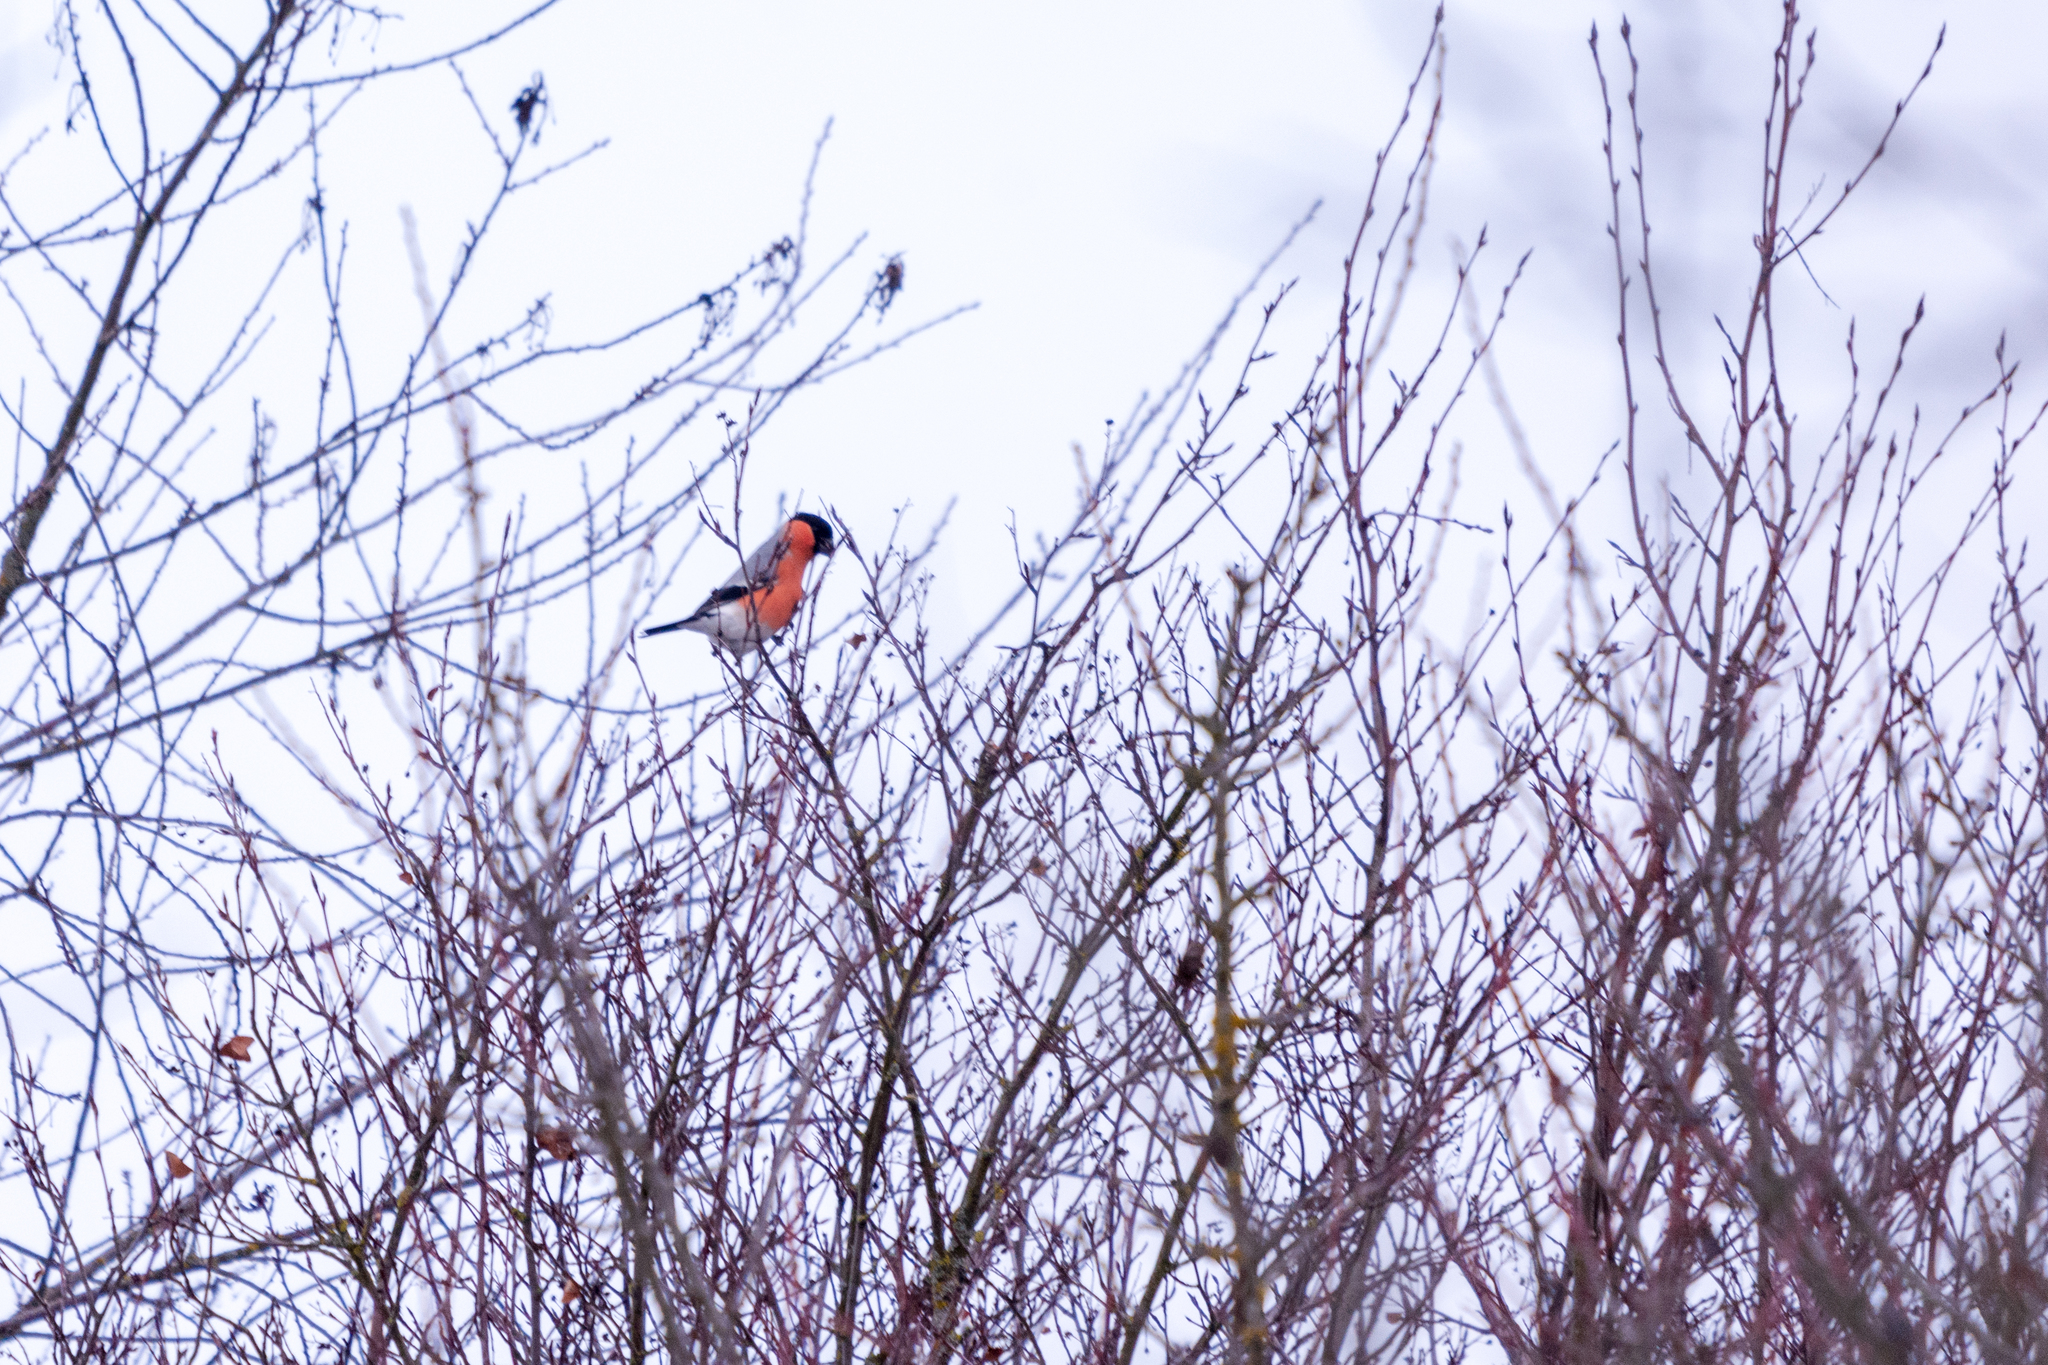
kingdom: Animalia
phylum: Chordata
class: Aves
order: Passeriformes
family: Fringillidae
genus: Pyrrhula
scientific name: Pyrrhula pyrrhula
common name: Eurasian bullfinch
